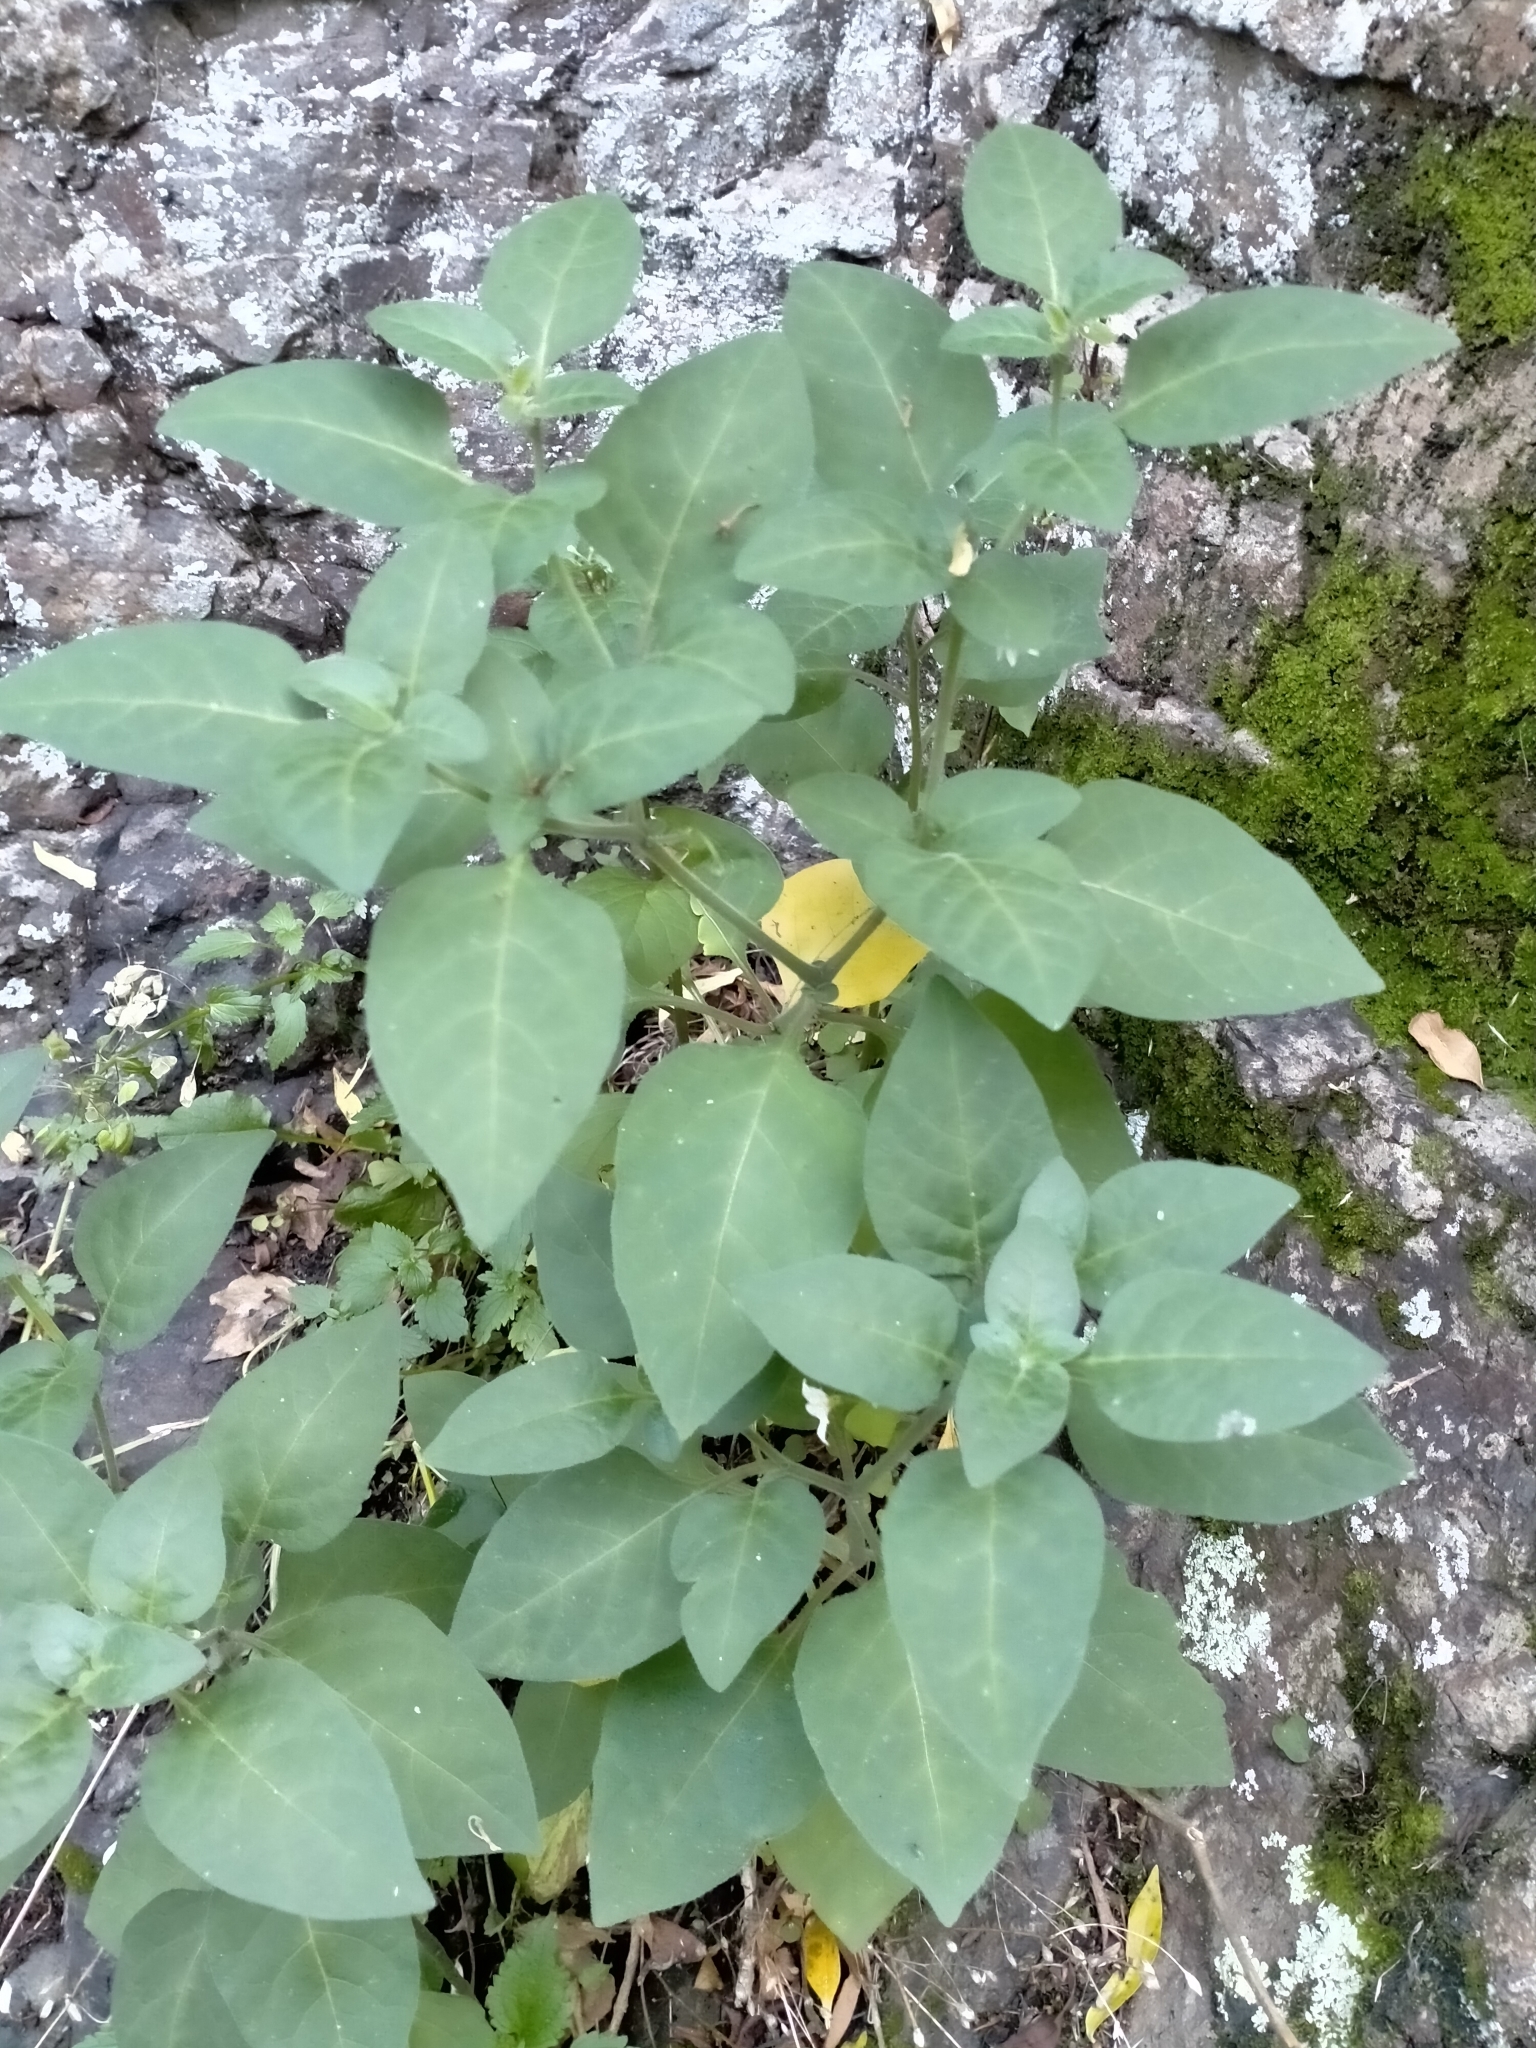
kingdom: Plantae
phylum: Tracheophyta
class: Magnoliopsida
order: Solanales
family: Solanaceae
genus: Solanum
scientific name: Solanum chenopodioides
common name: Tall nightshade
